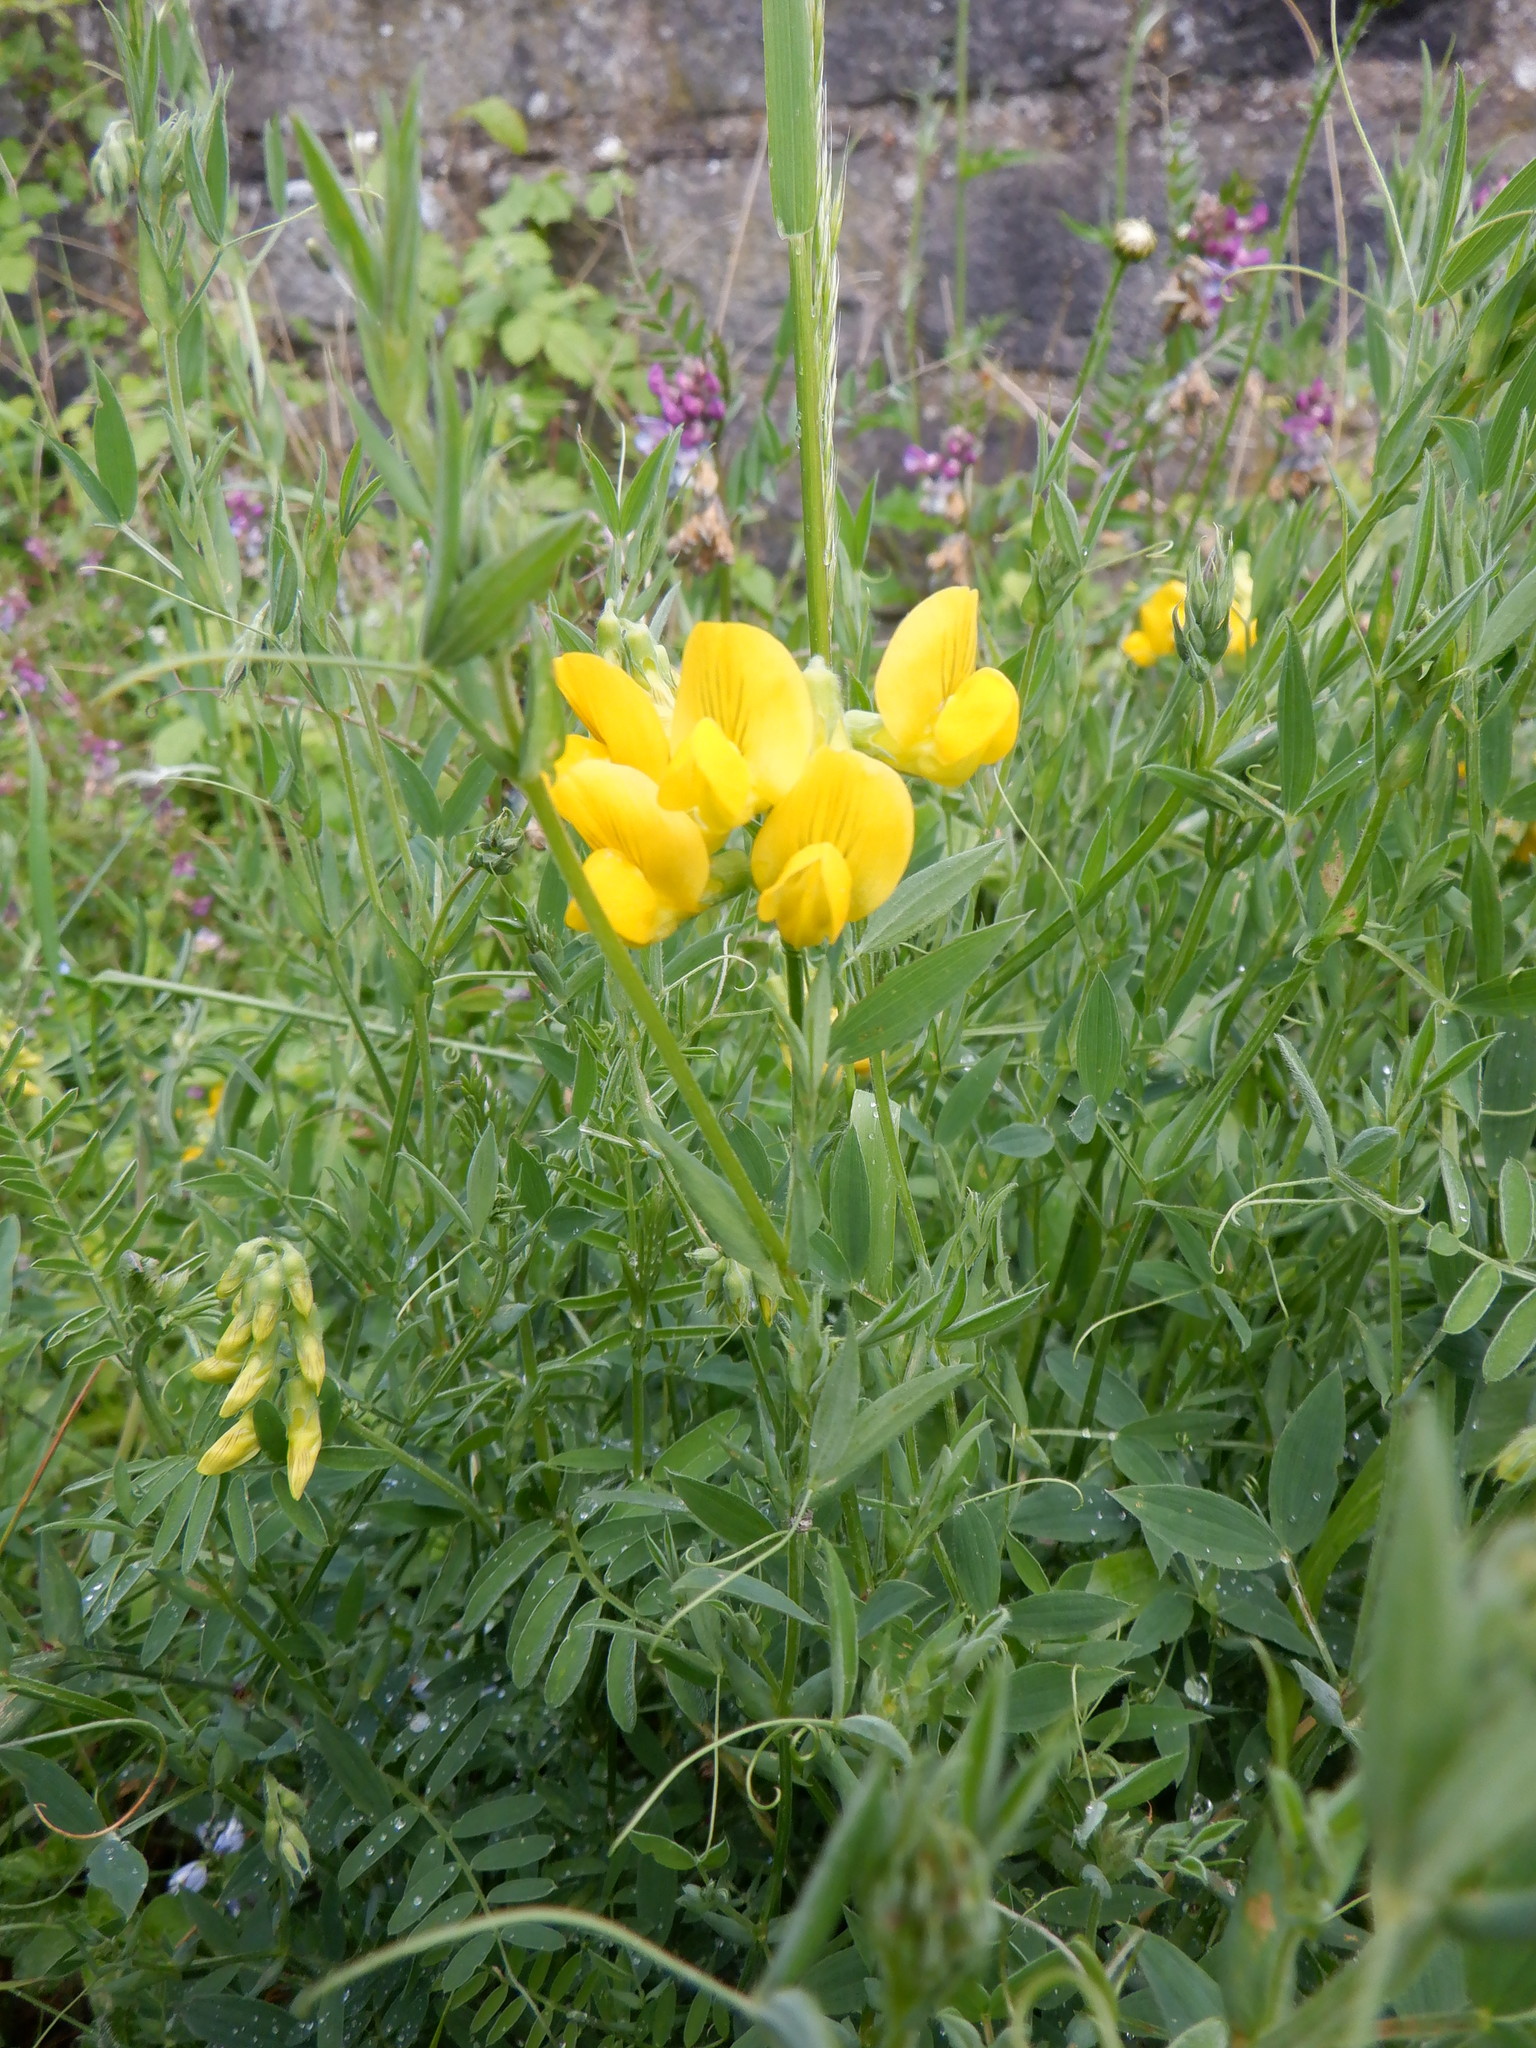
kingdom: Plantae
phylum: Tracheophyta
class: Magnoliopsida
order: Fabales
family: Fabaceae
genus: Lathyrus
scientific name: Lathyrus pratensis
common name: Meadow vetchling
